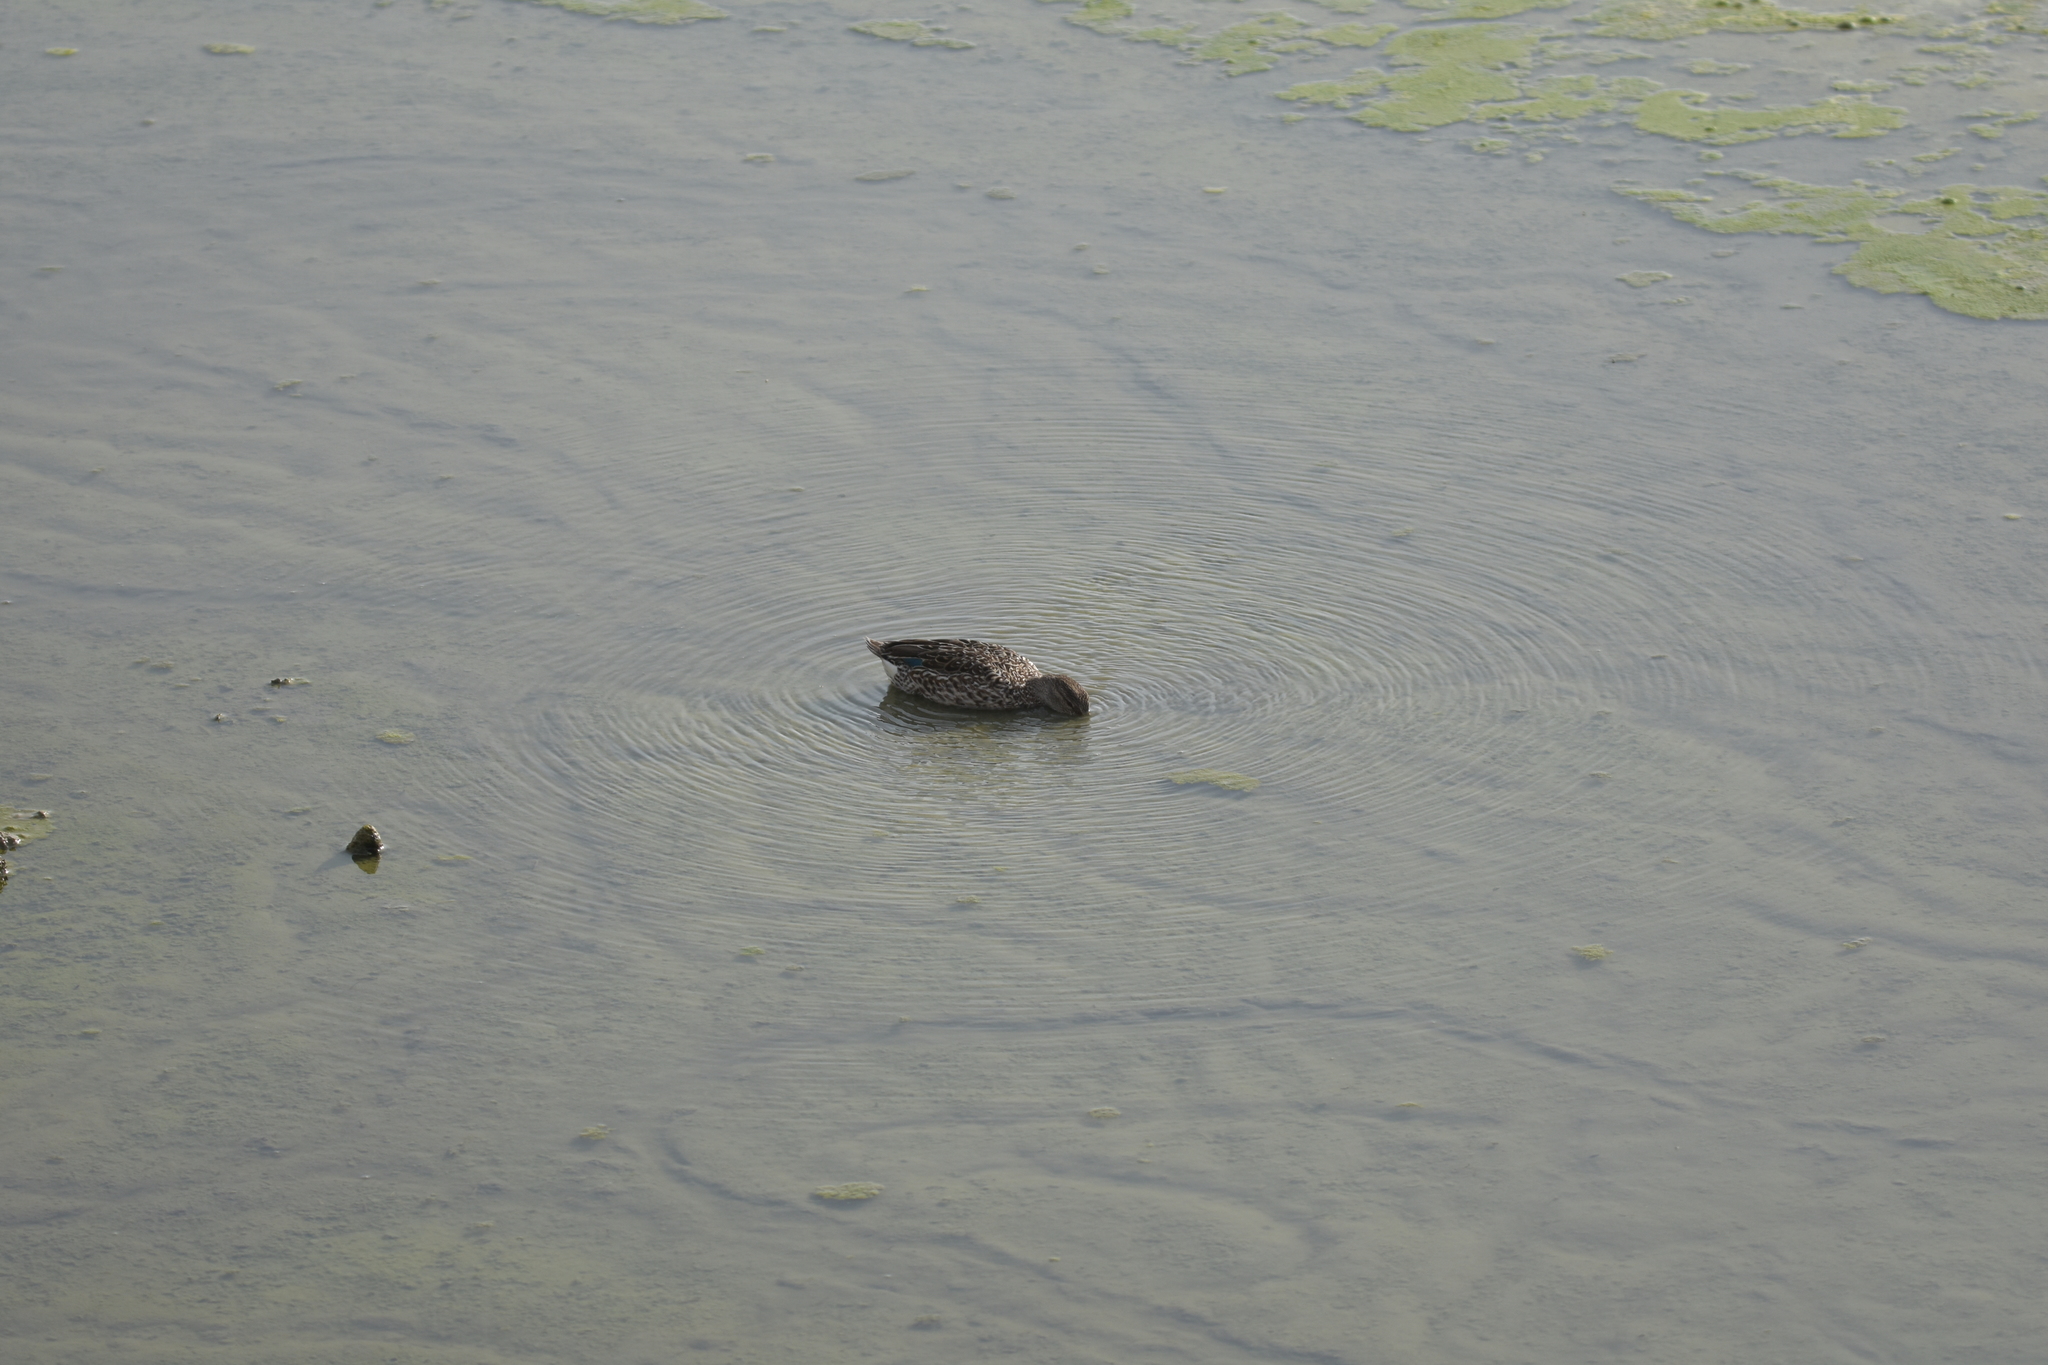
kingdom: Animalia
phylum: Chordata
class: Aves
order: Anseriformes
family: Anatidae
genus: Anas
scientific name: Anas crecca
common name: Eurasian teal
